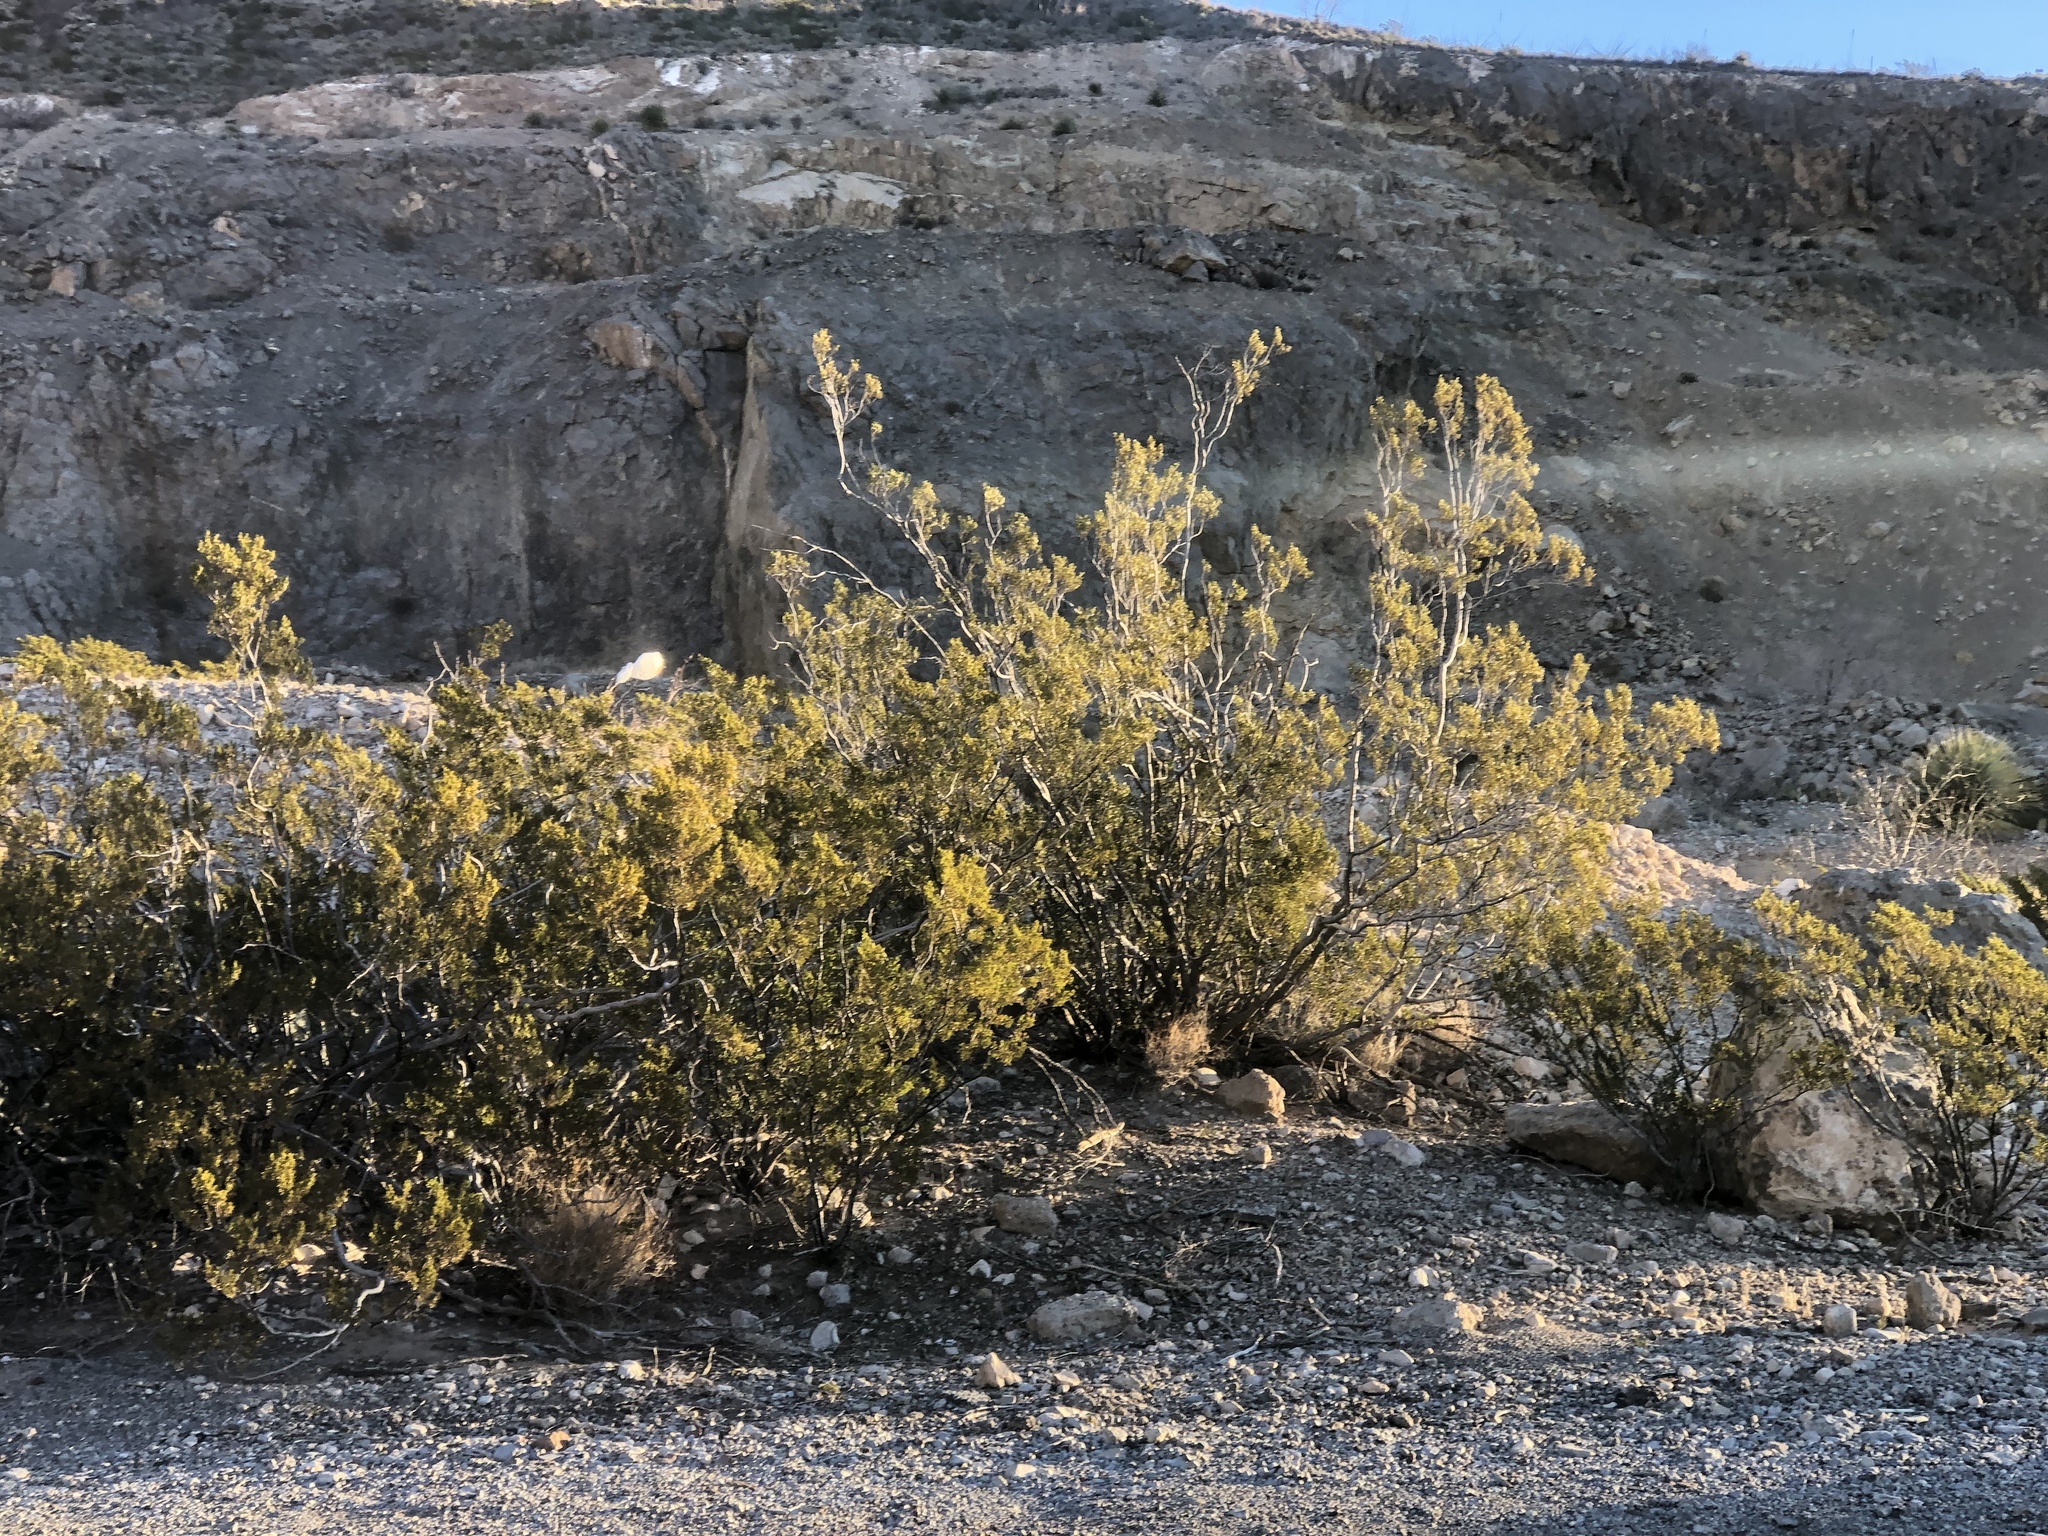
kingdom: Plantae
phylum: Tracheophyta
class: Magnoliopsida
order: Zygophyllales
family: Zygophyllaceae
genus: Larrea
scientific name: Larrea tridentata
